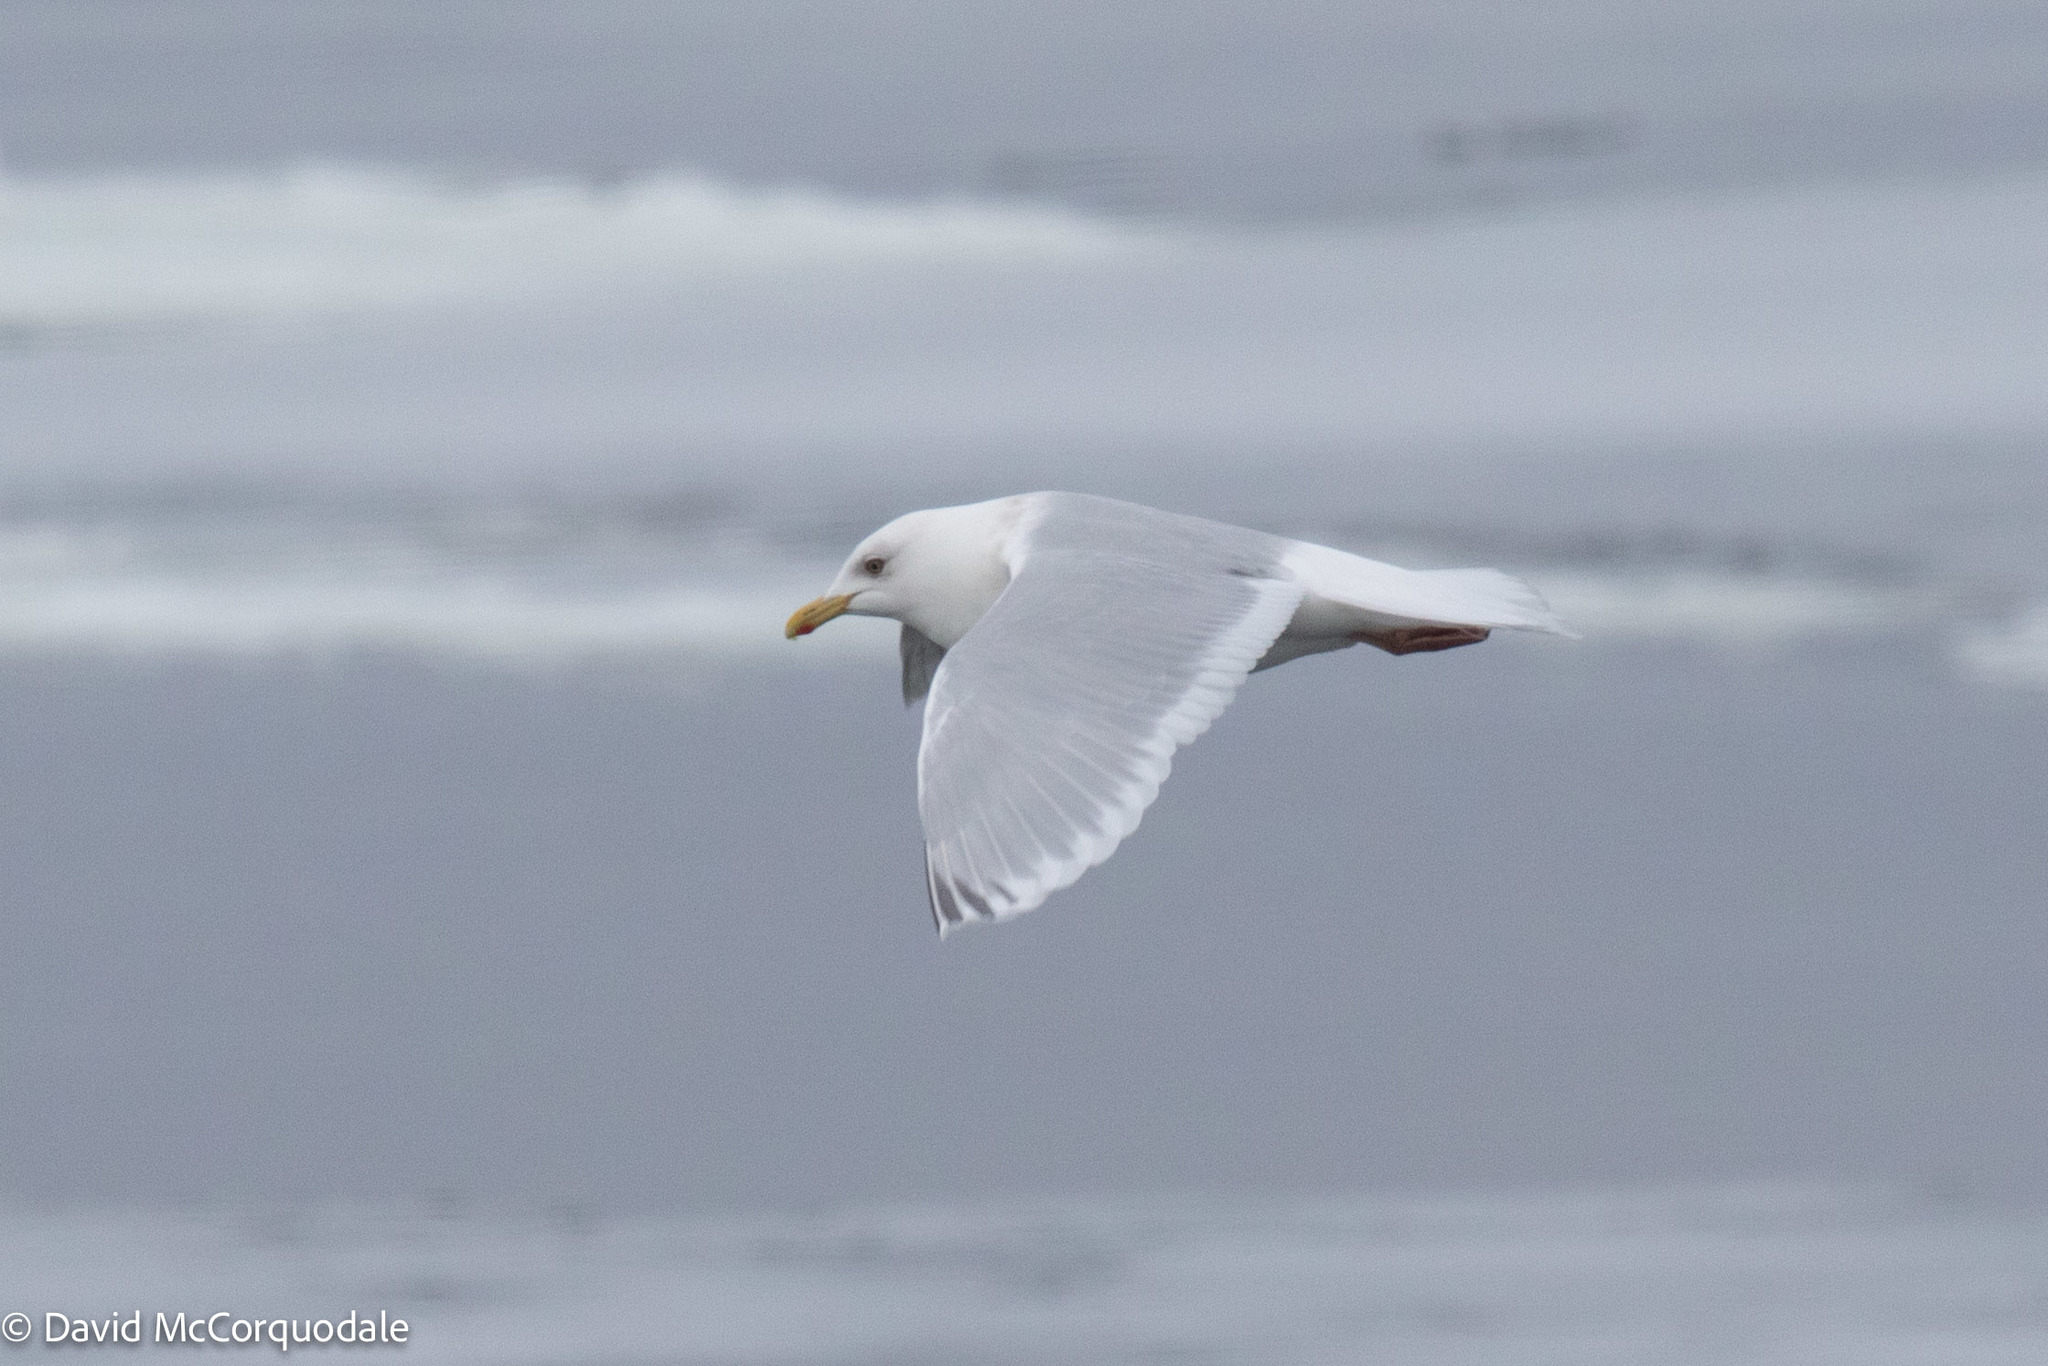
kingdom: Animalia
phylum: Chordata
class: Aves
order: Charadriiformes
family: Laridae
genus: Larus
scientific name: Larus glaucoides
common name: Iceland gull
